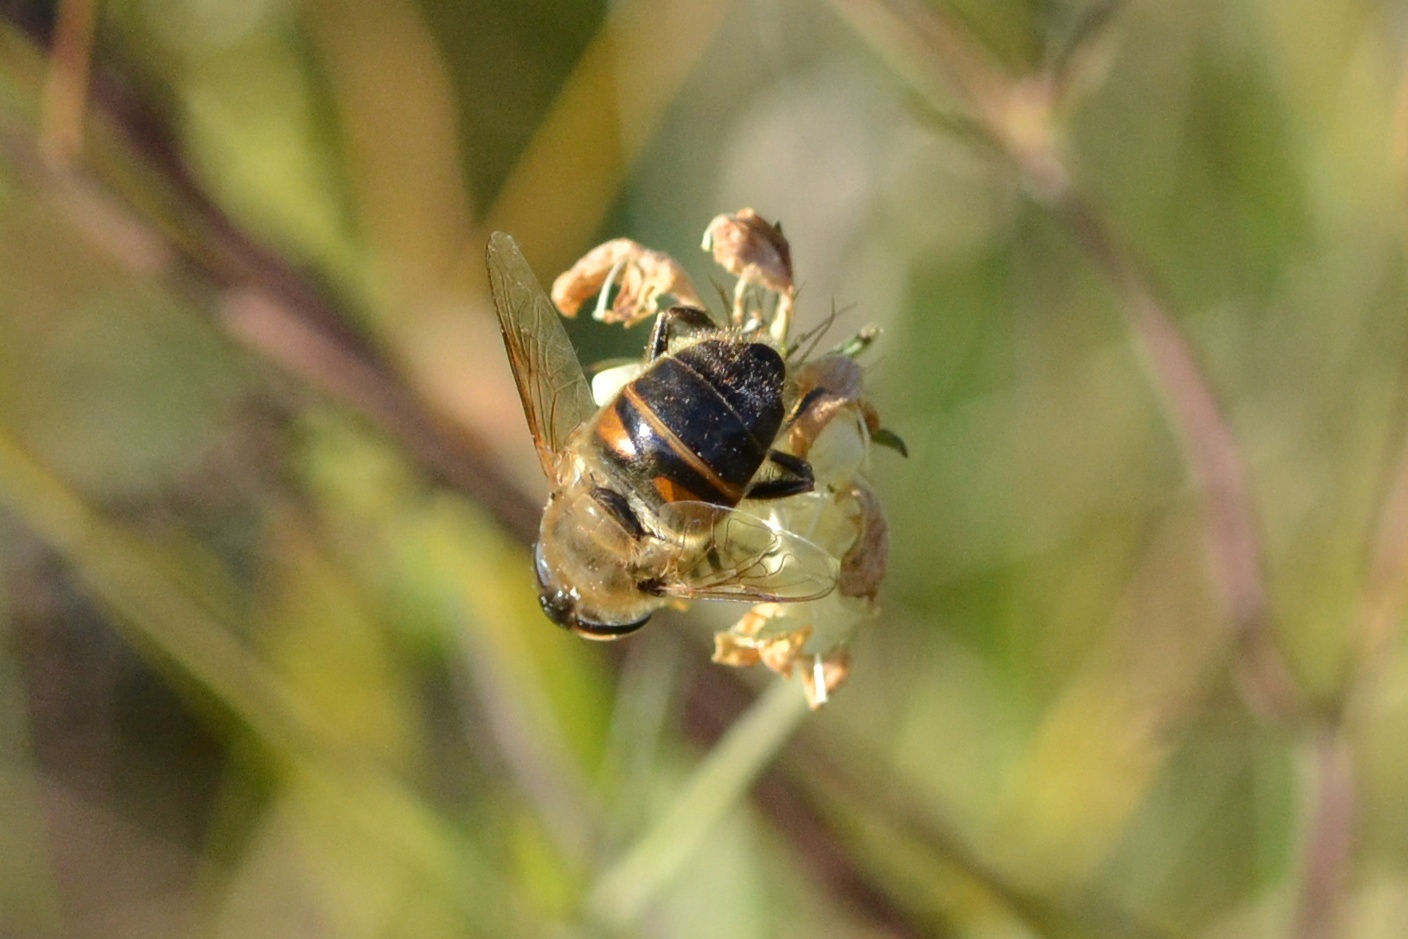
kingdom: Animalia
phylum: Arthropoda
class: Insecta
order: Diptera
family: Syrphidae
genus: Eristalis
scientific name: Eristalis tenax
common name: Drone fly
